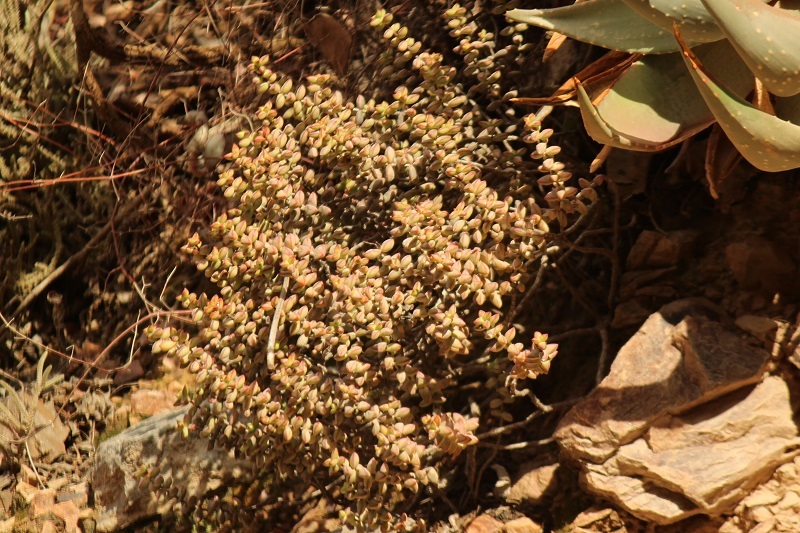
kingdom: Plantae
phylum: Tracheophyta
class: Magnoliopsida
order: Saxifragales
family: Crassulaceae
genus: Crassula
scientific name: Crassula rupestris
